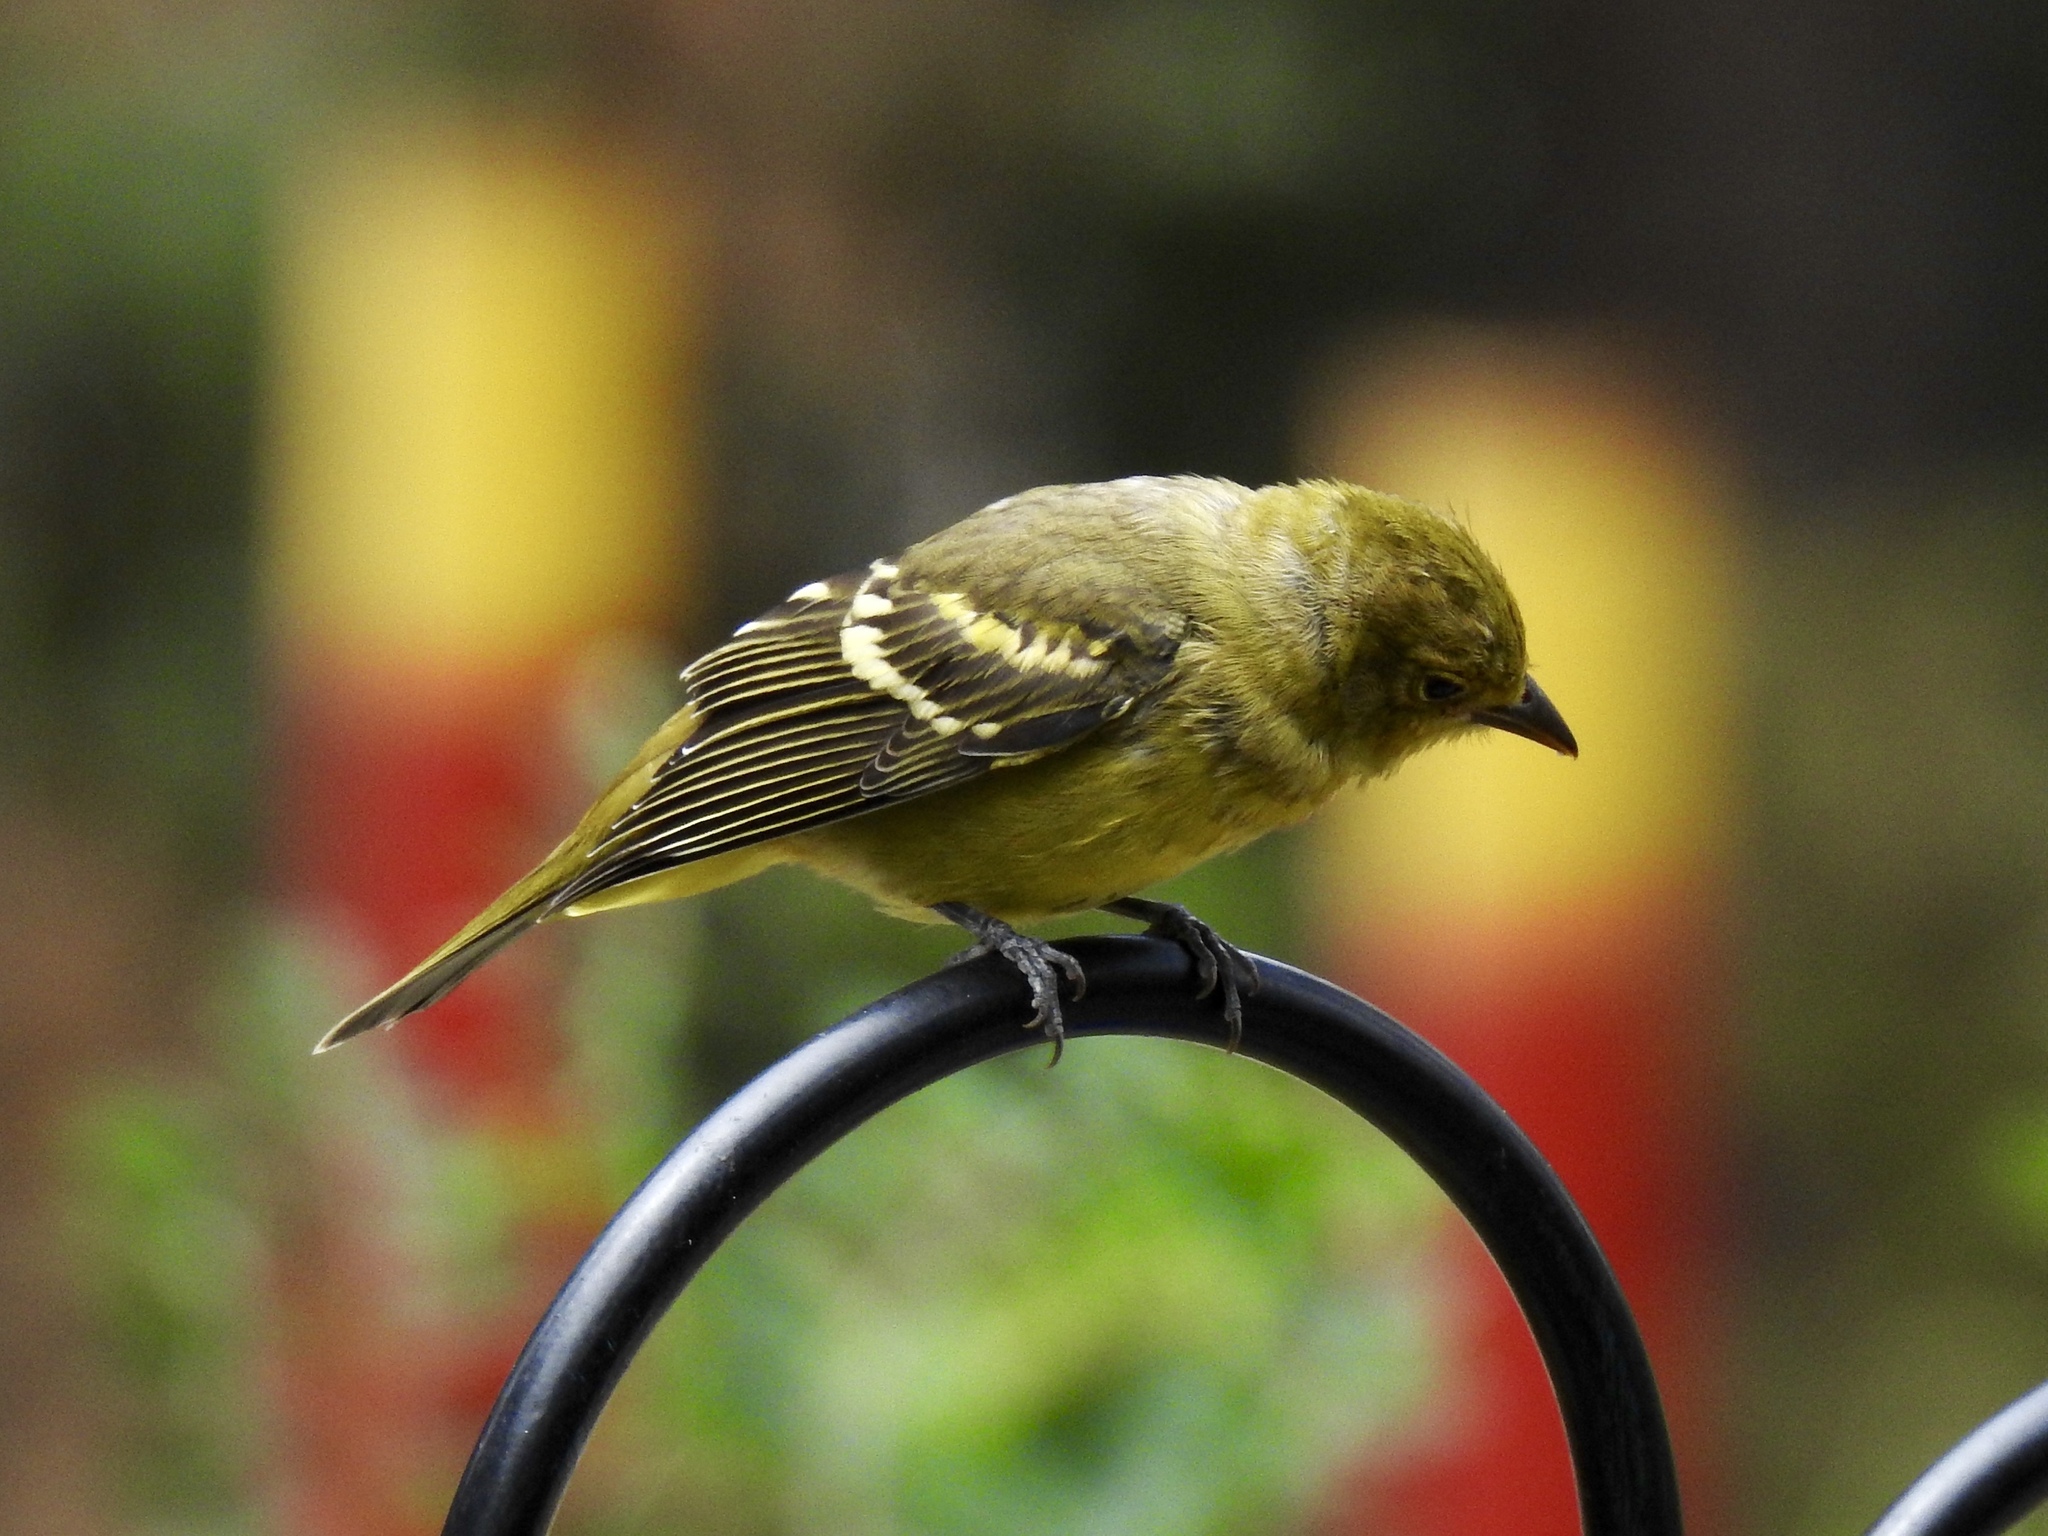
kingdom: Animalia
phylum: Chordata
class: Aves
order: Passeriformes
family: Cardinalidae
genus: Piranga
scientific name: Piranga ludoviciana
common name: Western tanager
